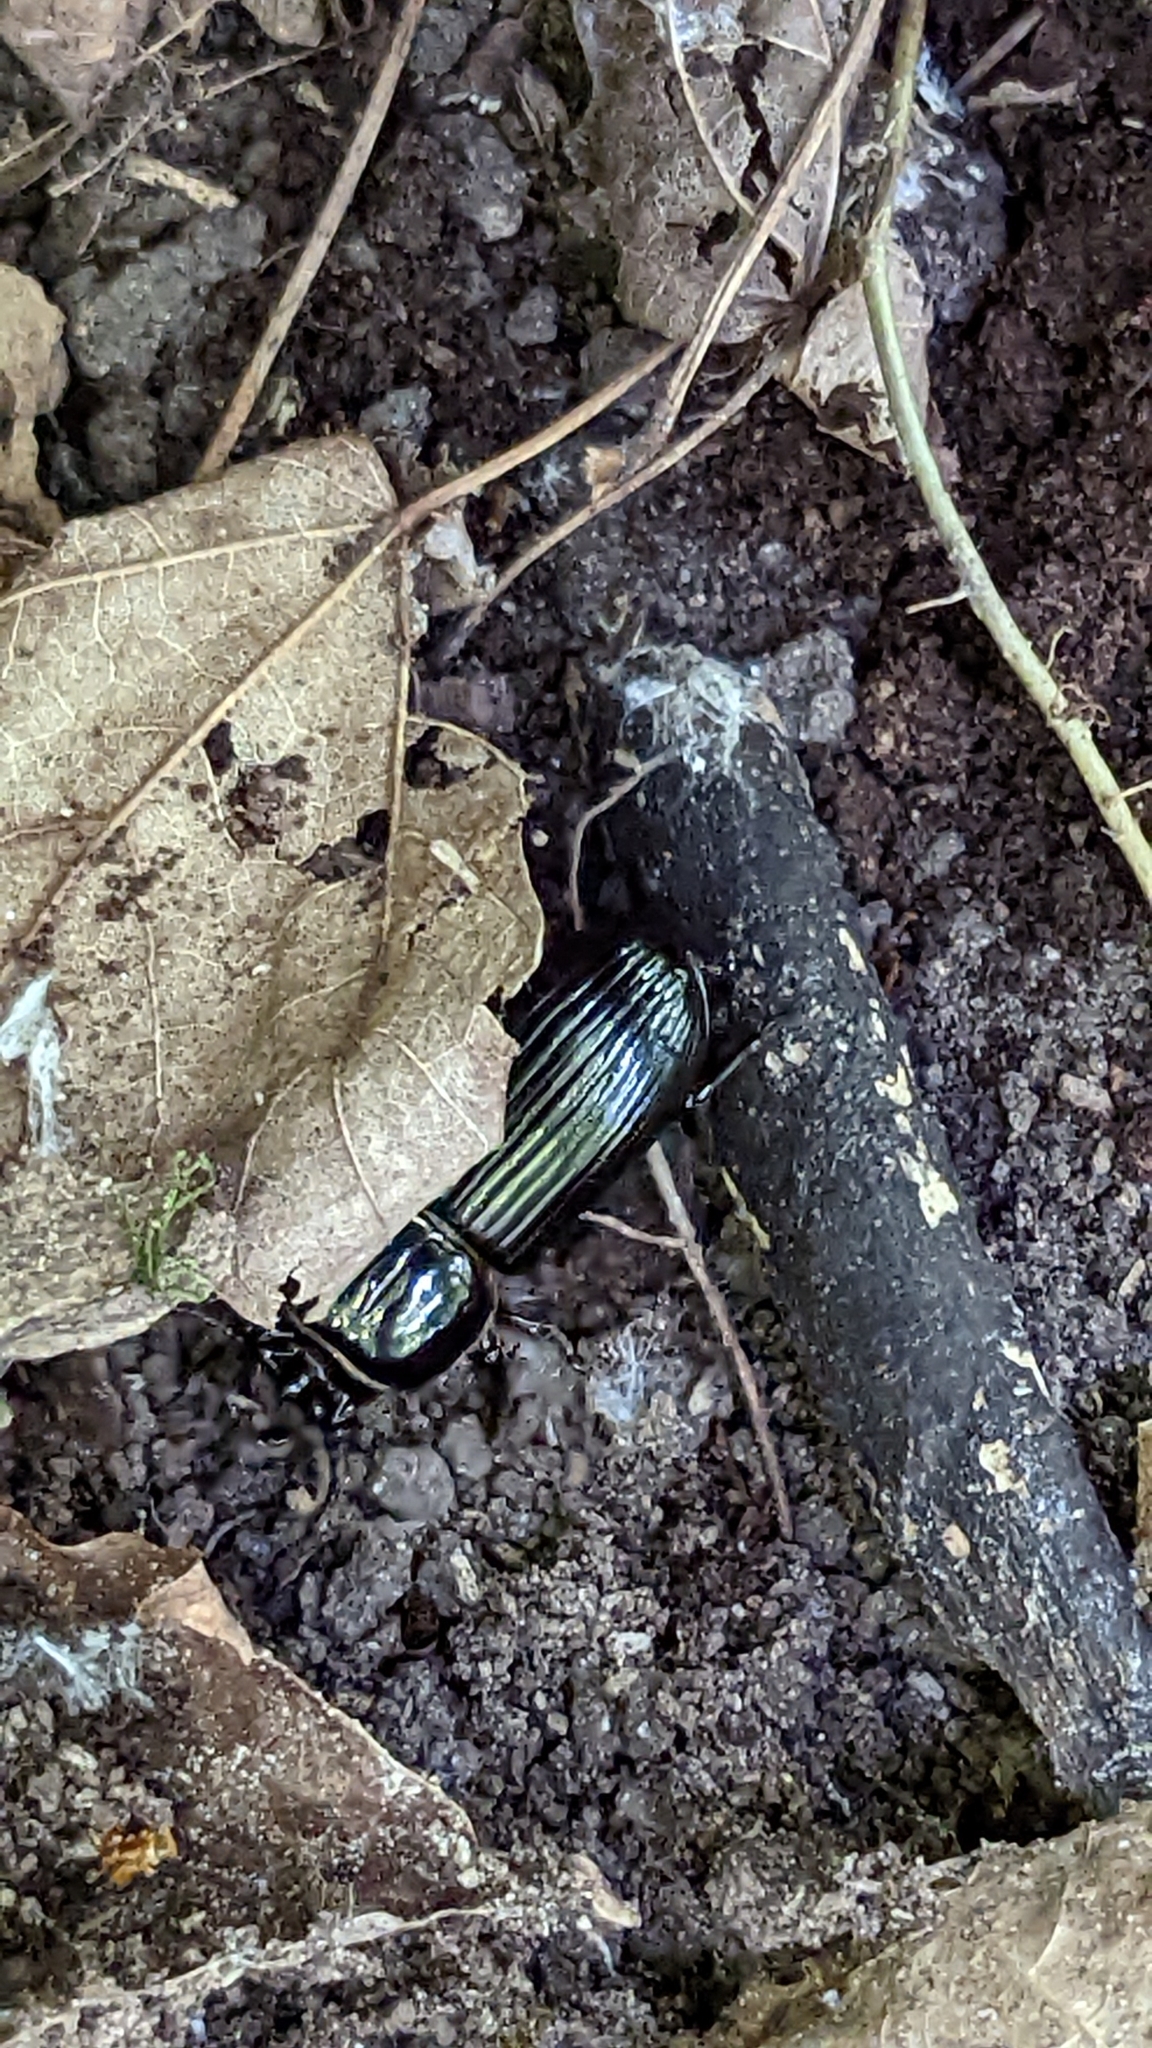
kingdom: Animalia
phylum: Arthropoda
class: Insecta
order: Coleoptera
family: Passalidae
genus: Odontotaenius
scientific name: Odontotaenius disjunctus
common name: Patent leather beetle
